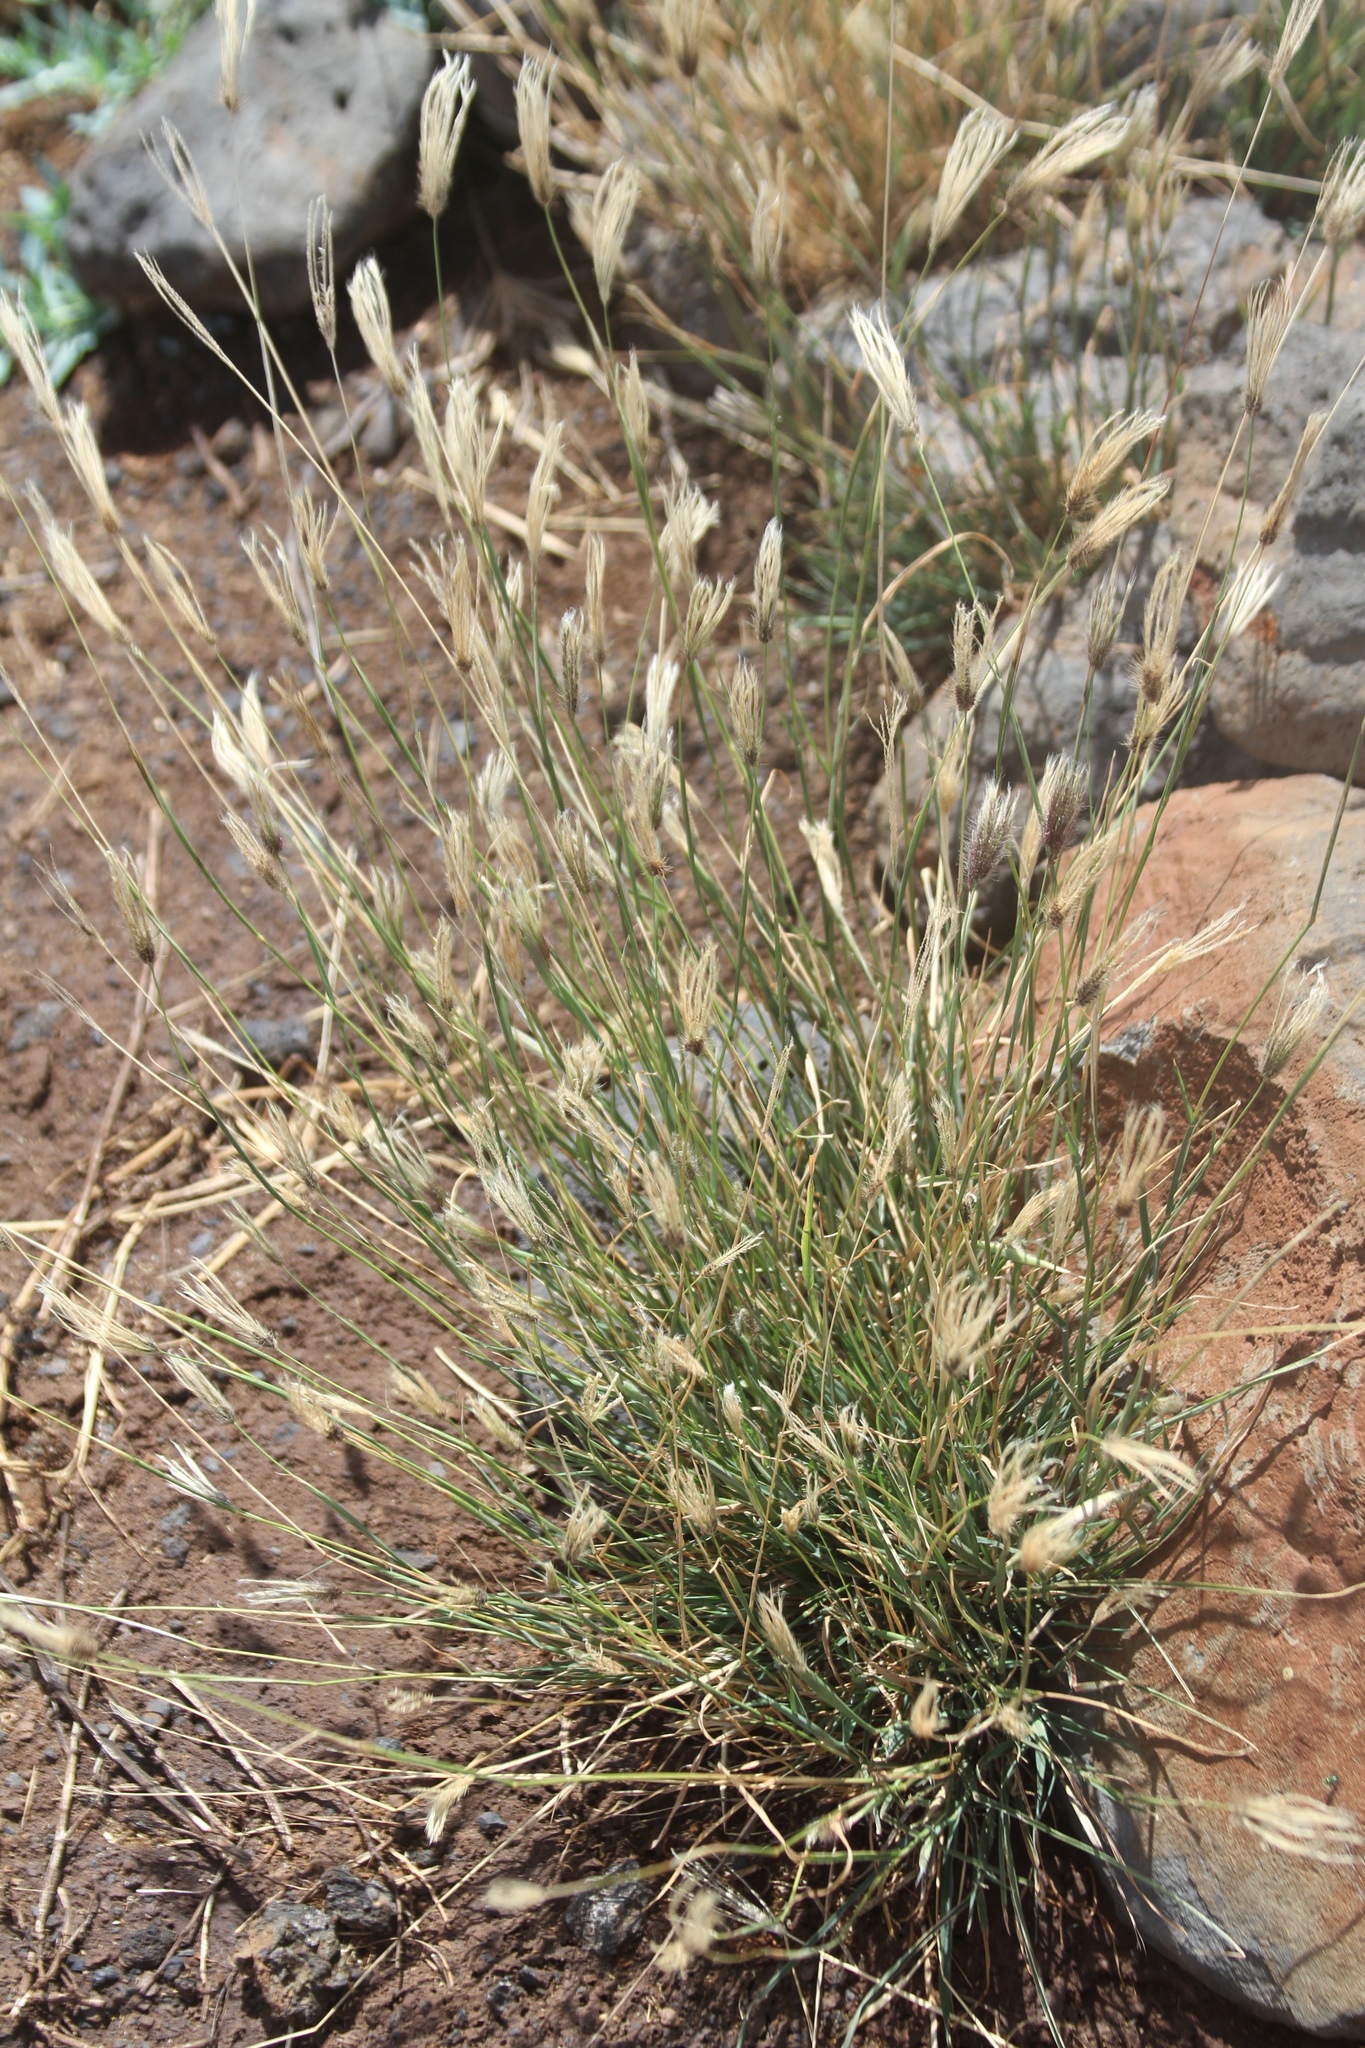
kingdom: Plantae
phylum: Tracheophyta
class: Liliopsida
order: Poales
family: Poaceae
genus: Chloris
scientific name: Chloris barbata
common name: Swollen fingergrass
